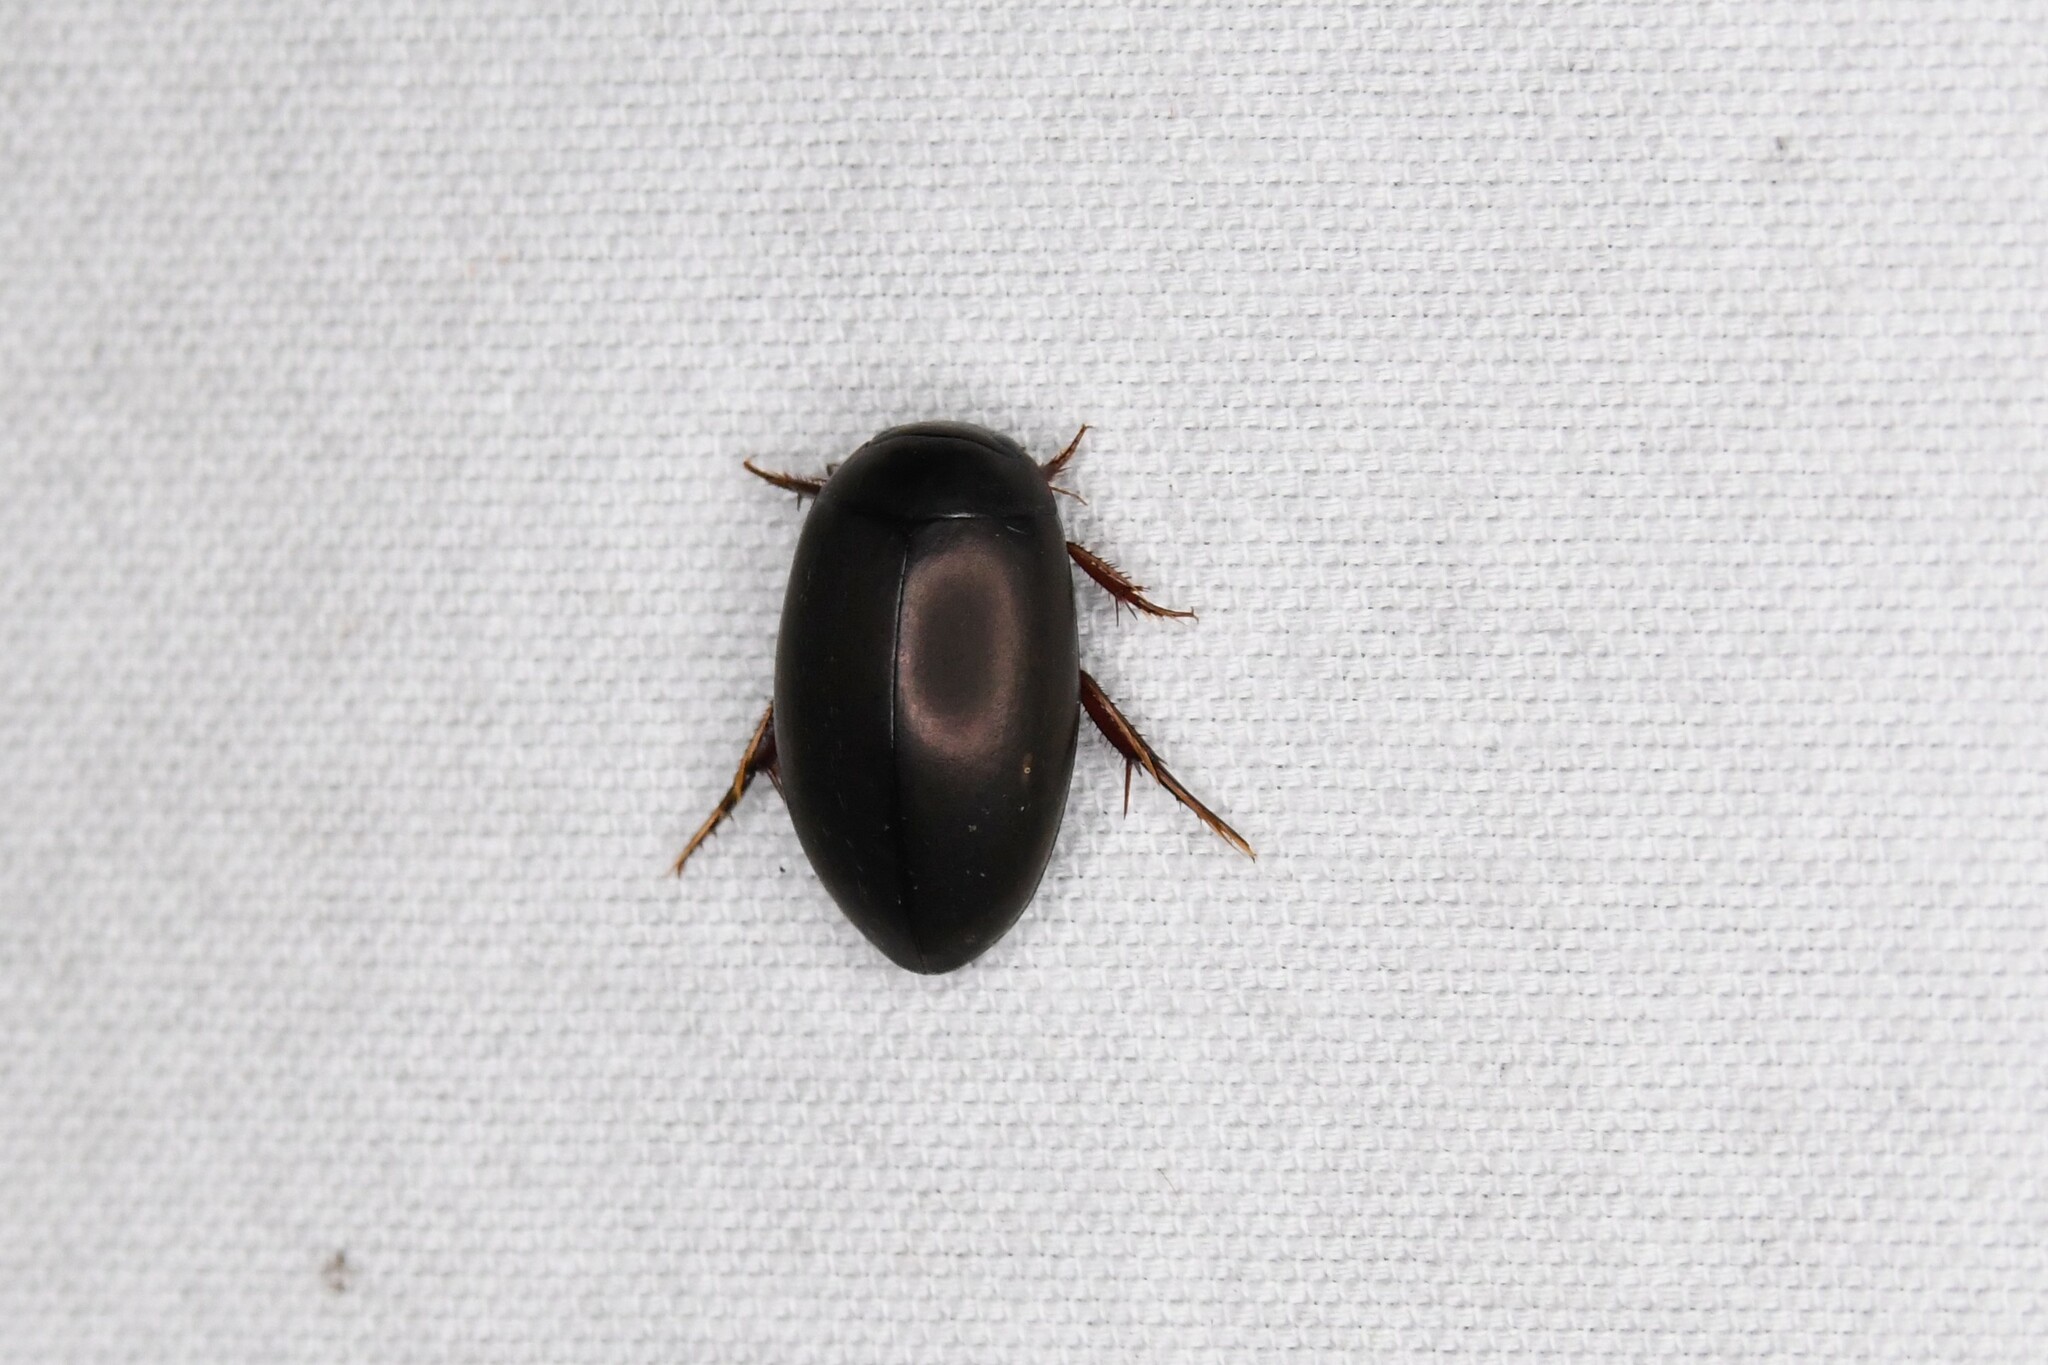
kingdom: Animalia
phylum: Arthropoda
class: Insecta
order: Coleoptera
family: Dytiscidae
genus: Ilybius
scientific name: Ilybius
